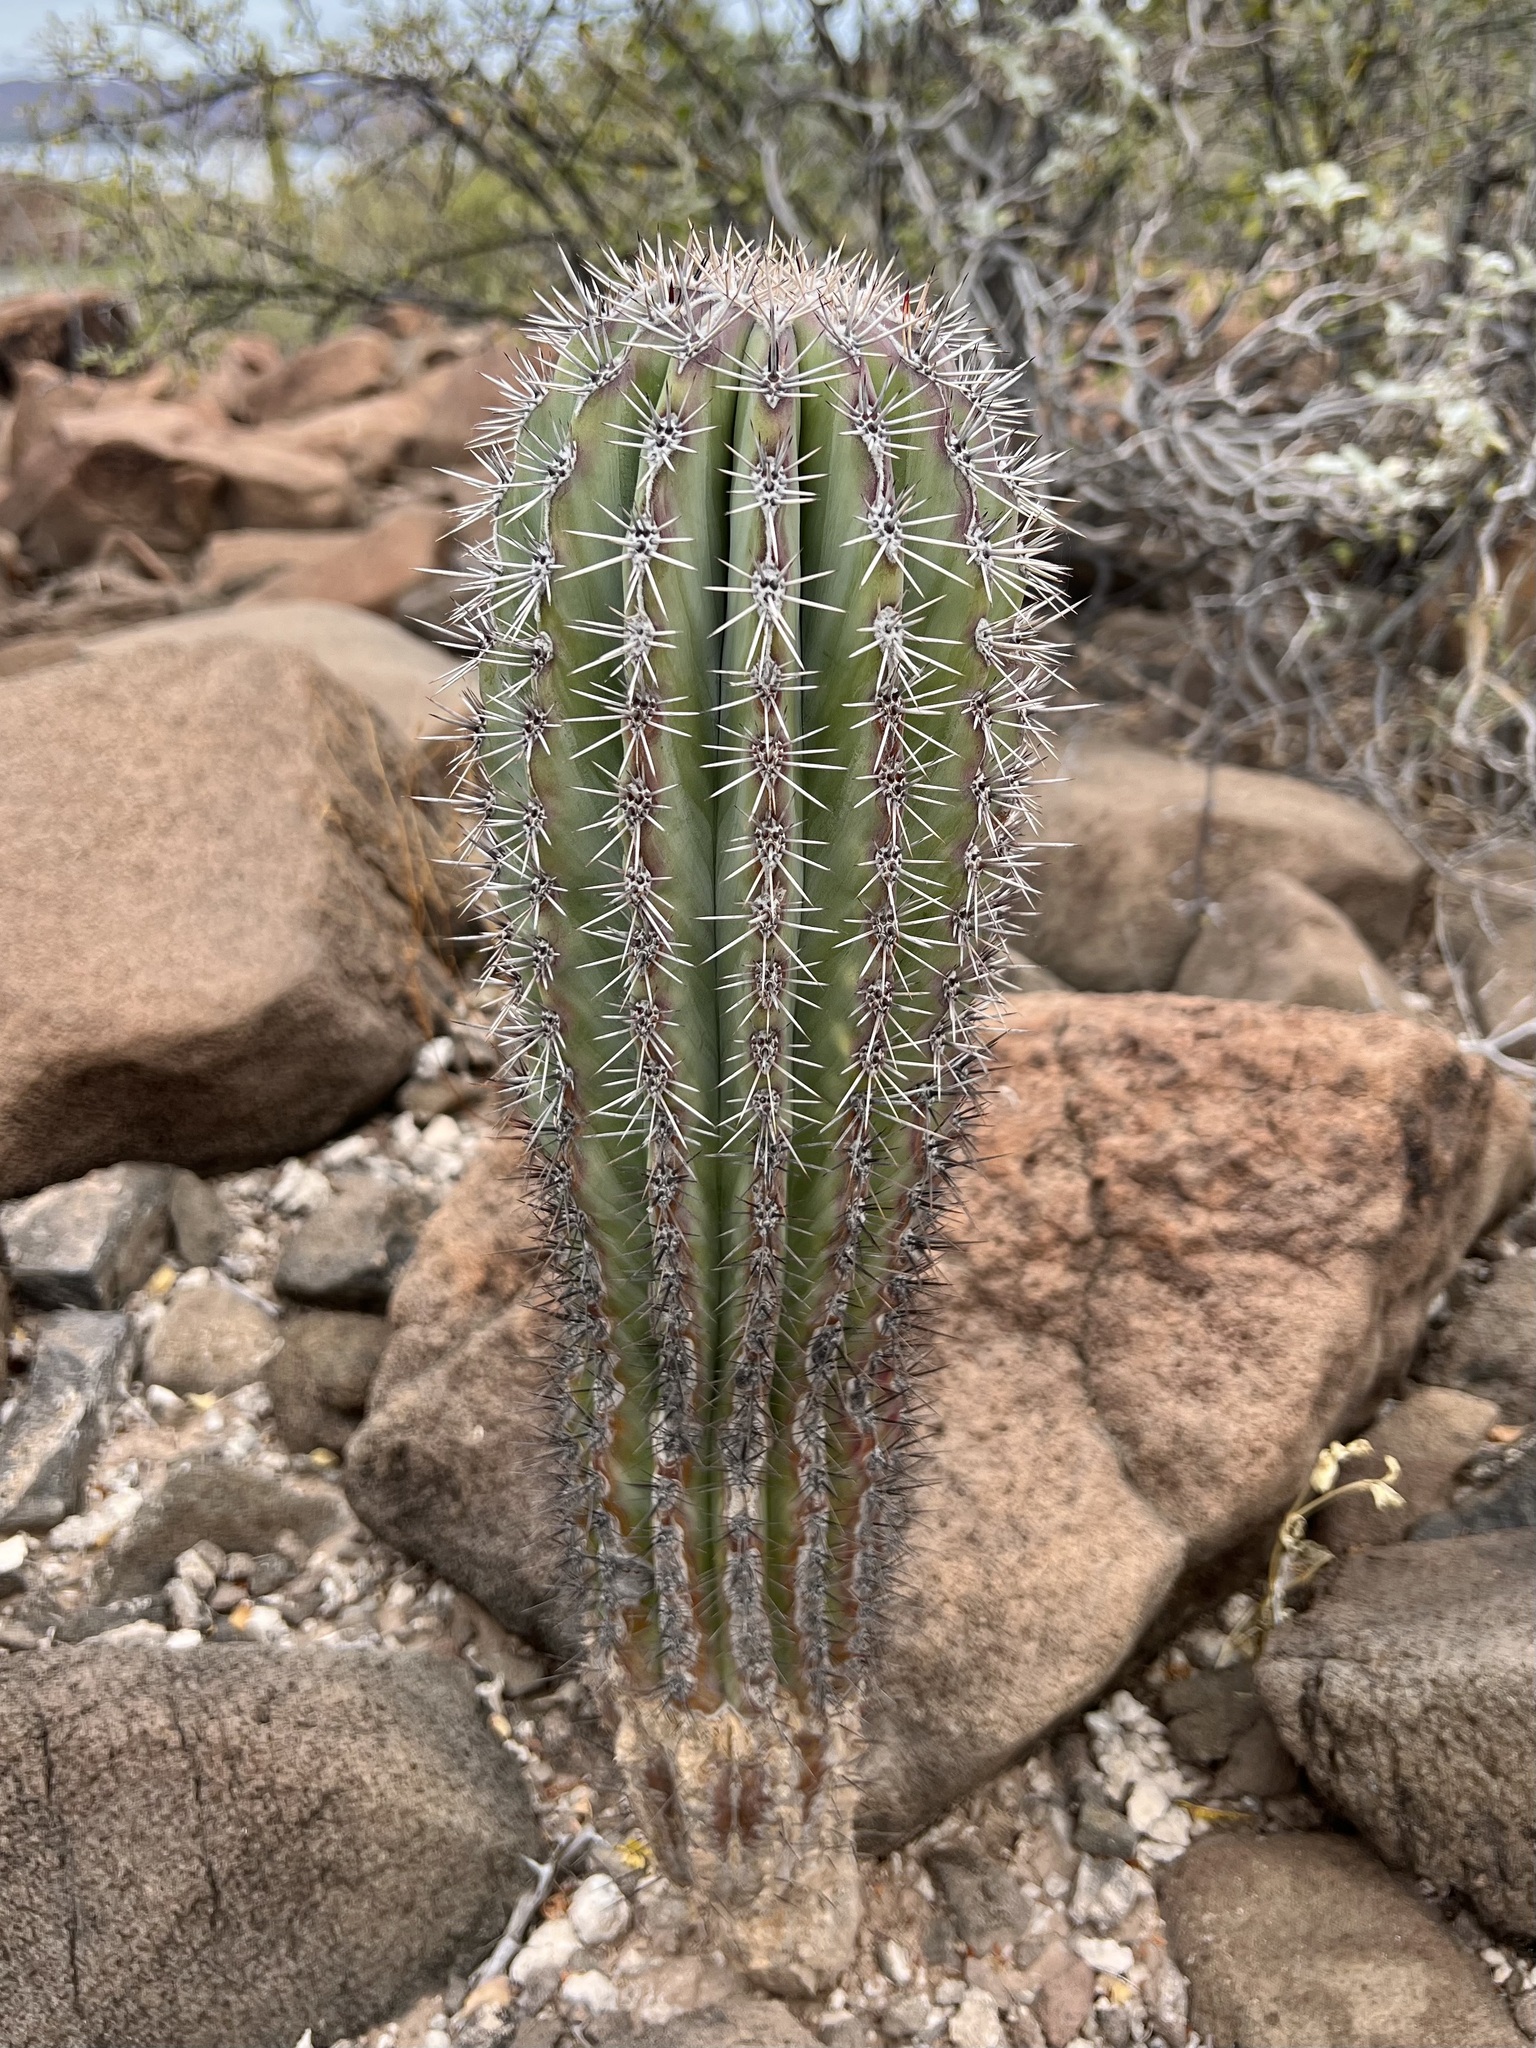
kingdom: Plantae
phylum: Tracheophyta
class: Magnoliopsida
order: Caryophyllales
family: Cactaceae
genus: Pachycereus
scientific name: Pachycereus pringlei
